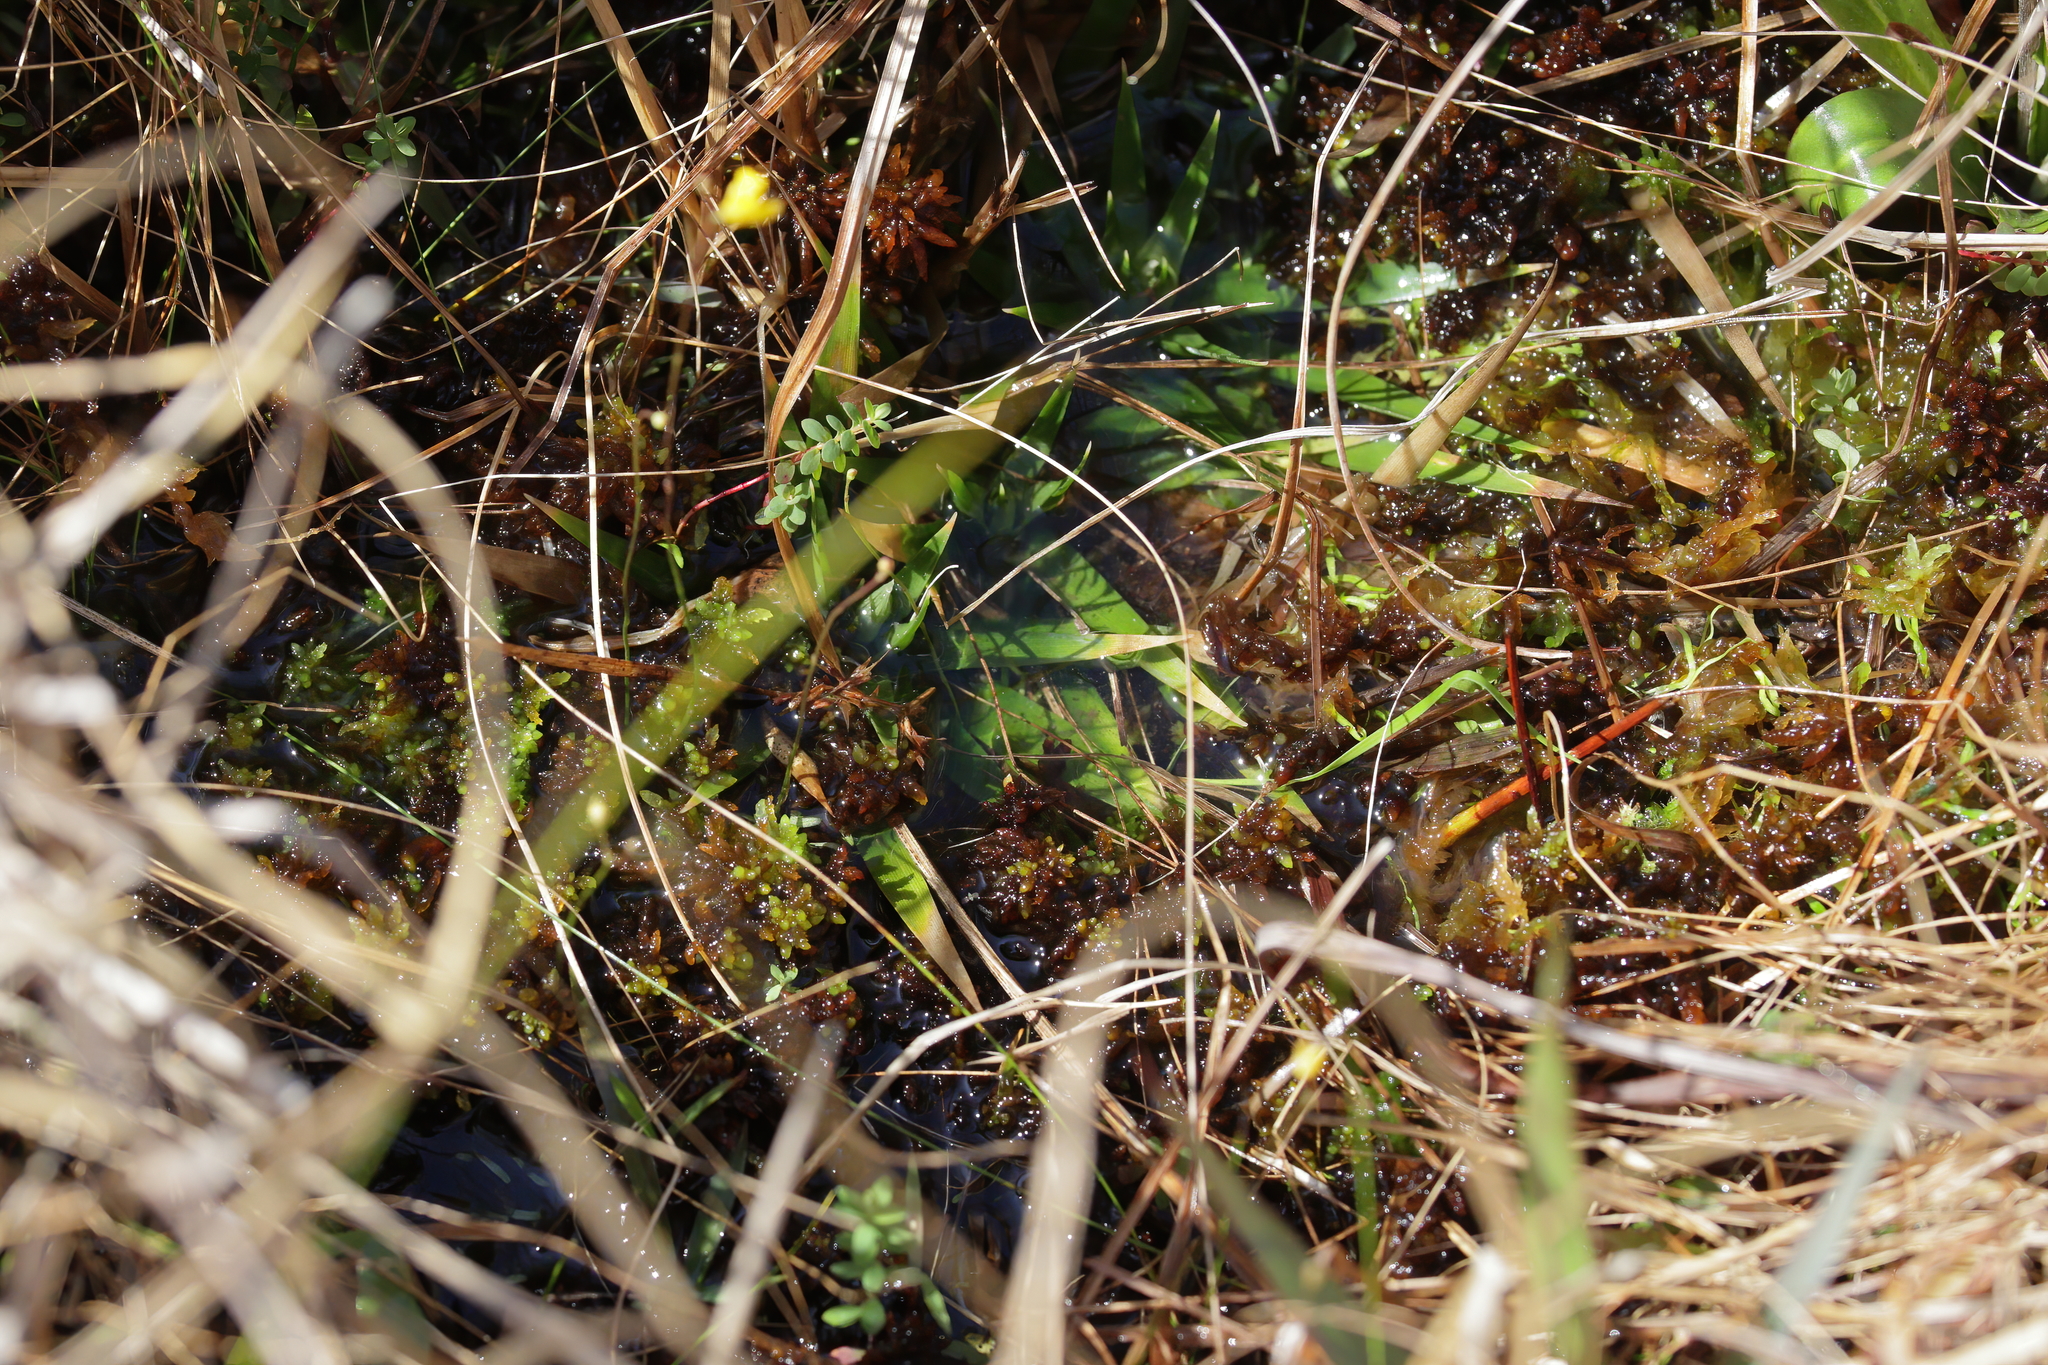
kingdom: Plantae
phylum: Bryophyta
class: Sphagnopsida
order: Sphagnales
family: Sphagnaceae
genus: Sphagnum
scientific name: Sphagnum cyclophyllum
